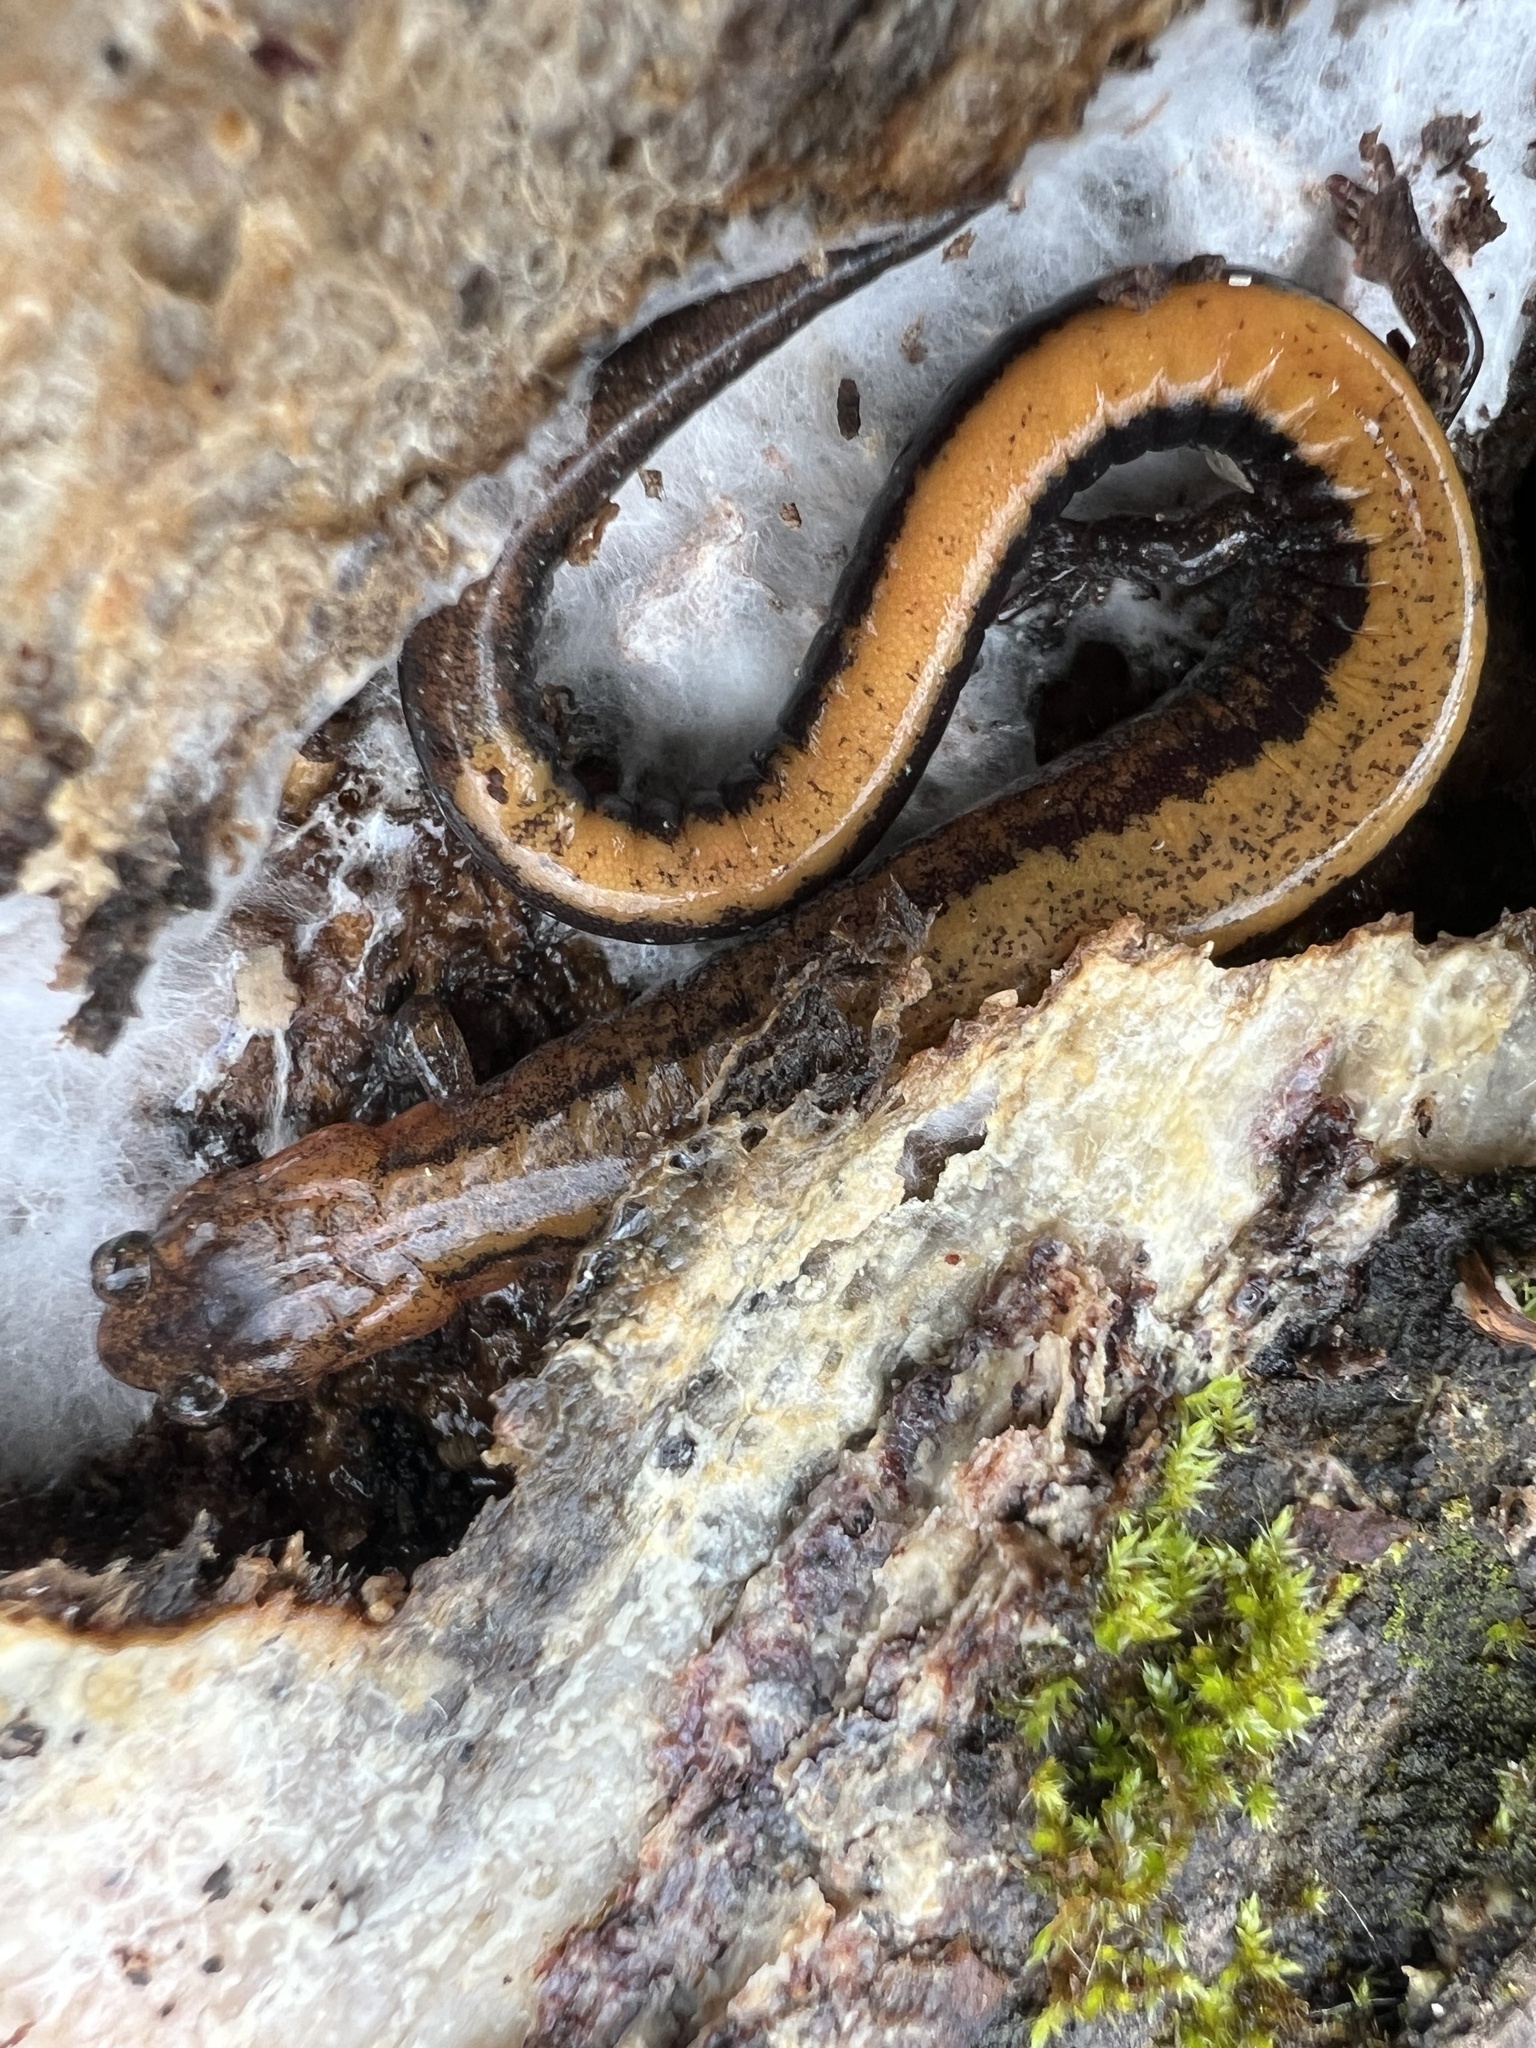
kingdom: Animalia
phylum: Chordata
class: Amphibia
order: Caudata
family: Plethodontidae
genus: Plethodon
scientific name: Plethodon cinereus
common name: Redback salamander
